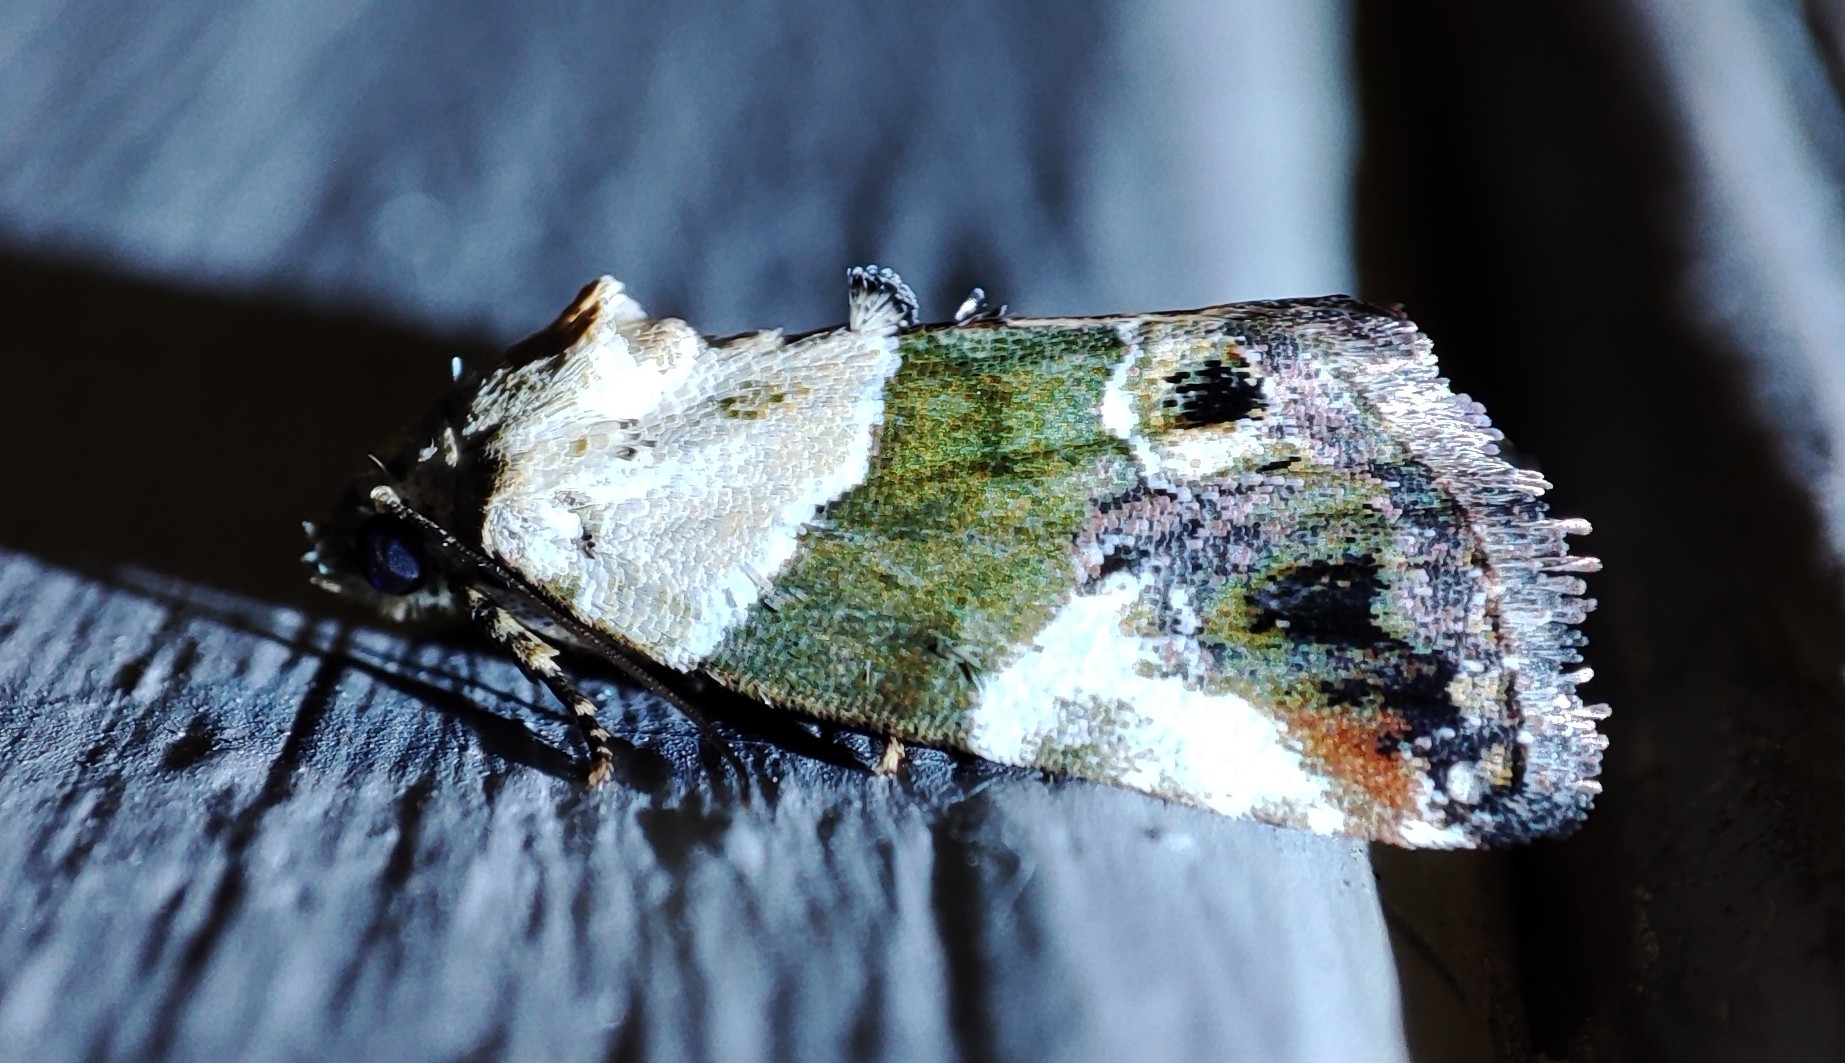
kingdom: Animalia
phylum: Arthropoda
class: Insecta
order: Lepidoptera
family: Noctuidae
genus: Hypercodia
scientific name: Hypercodia wheeleri
